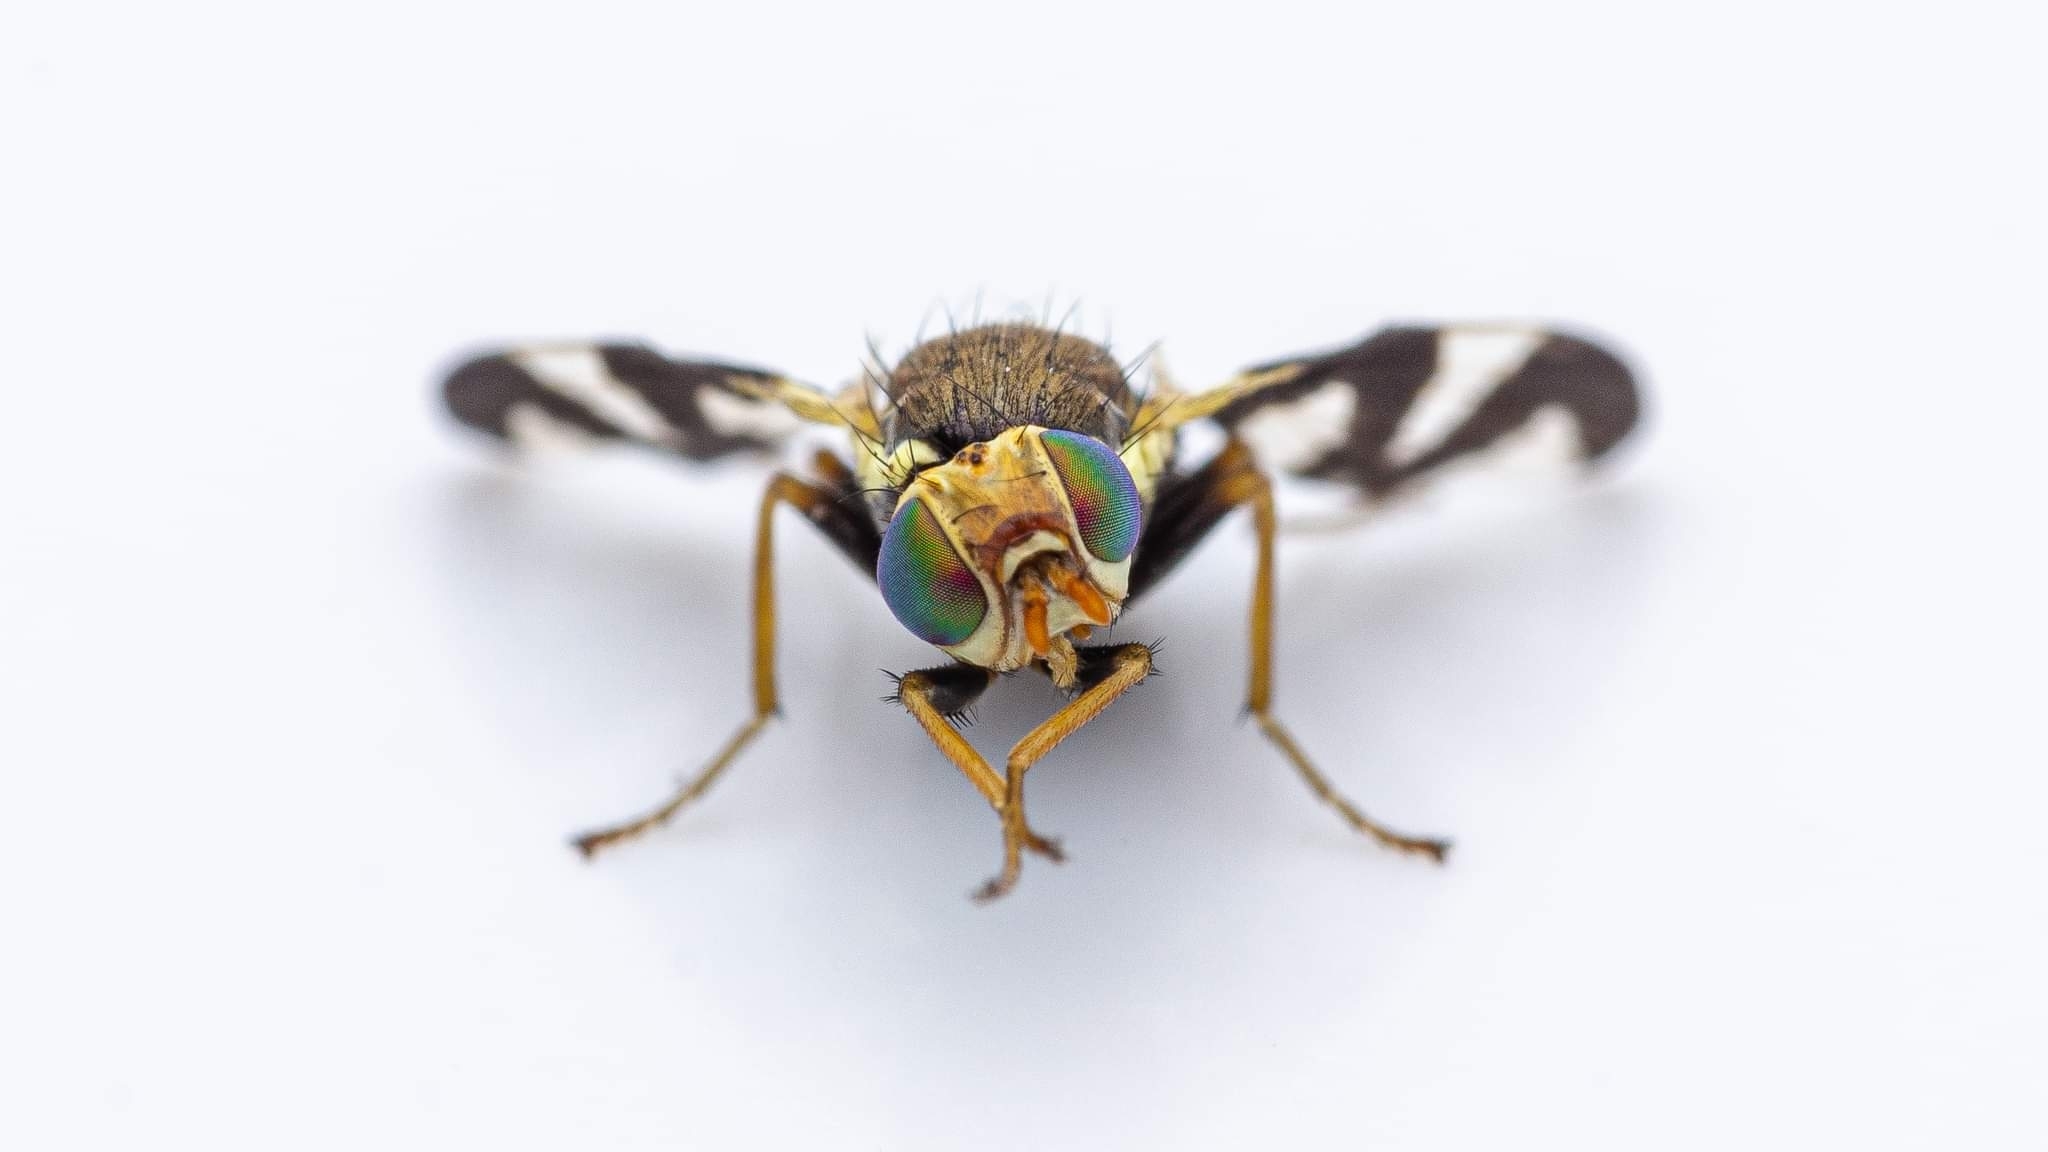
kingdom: Animalia
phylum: Arthropoda
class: Insecta
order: Diptera
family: Tephritidae
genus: Urophora
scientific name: Urophora cardui
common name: Fruit fly
